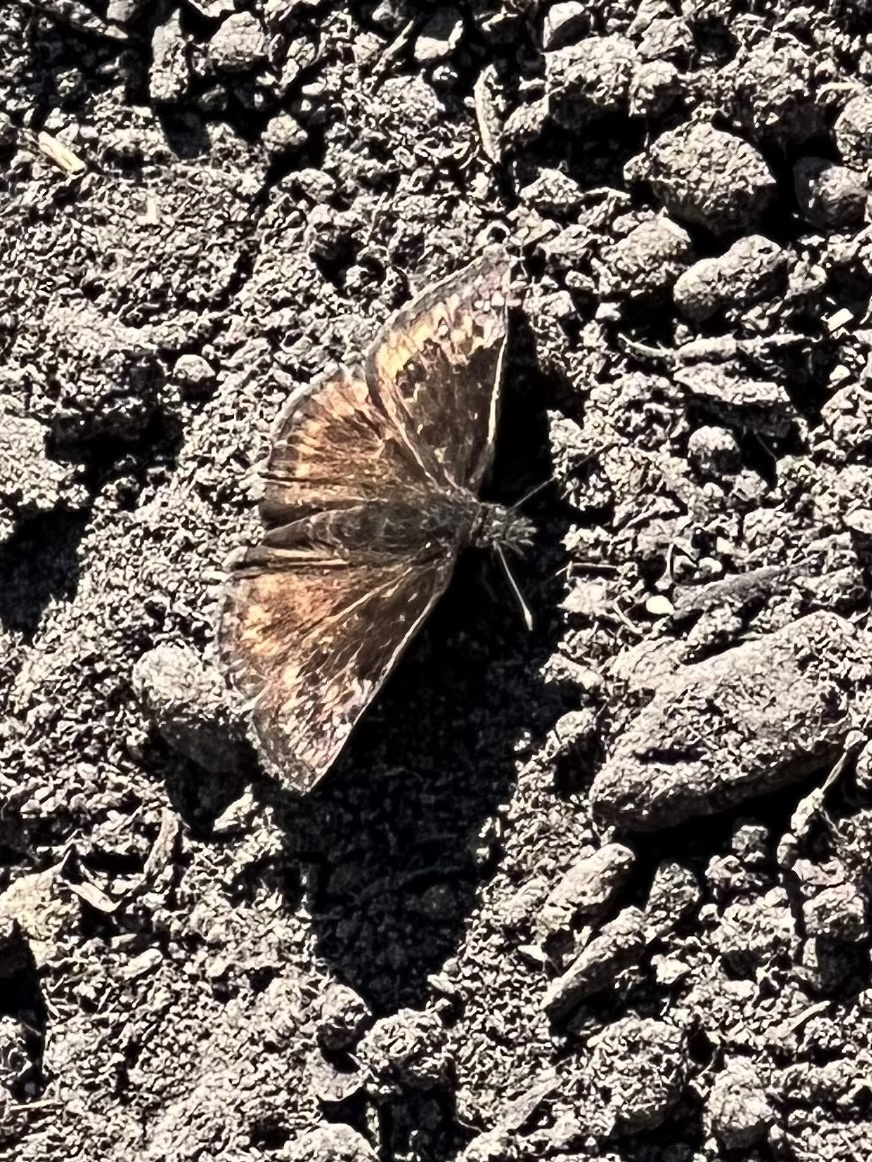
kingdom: Animalia
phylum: Arthropoda
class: Insecta
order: Lepidoptera
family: Hesperiidae
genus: Erynnis
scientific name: Erynnis baptisiae
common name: Wild indigo duskywing
